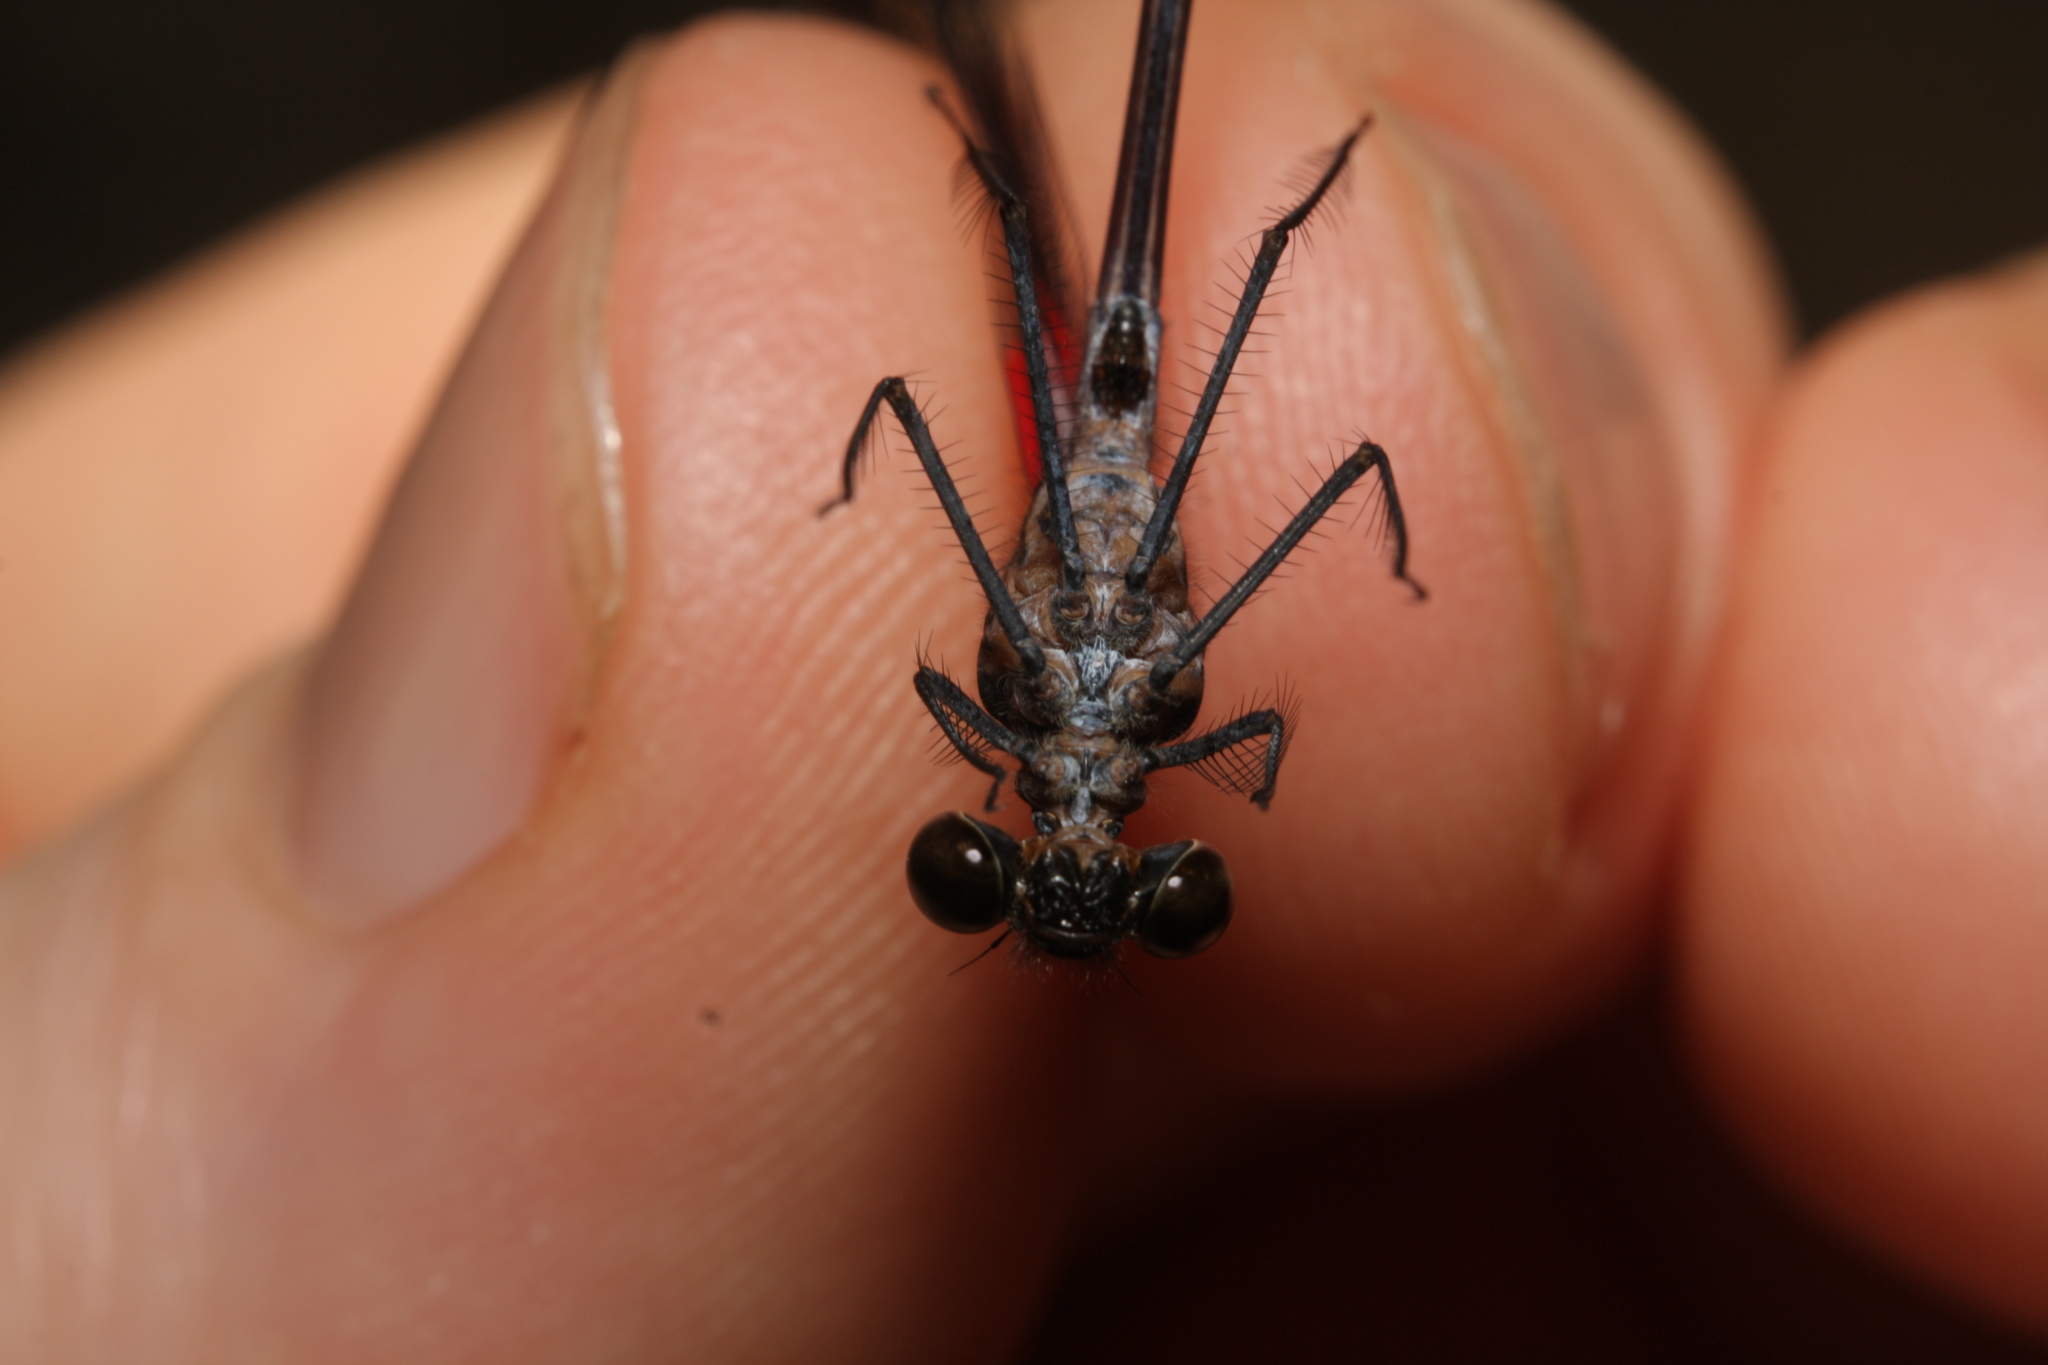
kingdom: Animalia
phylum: Arthropoda
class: Insecta
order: Odonata
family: Calopterygidae
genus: Hetaerina
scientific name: Hetaerina occisa
